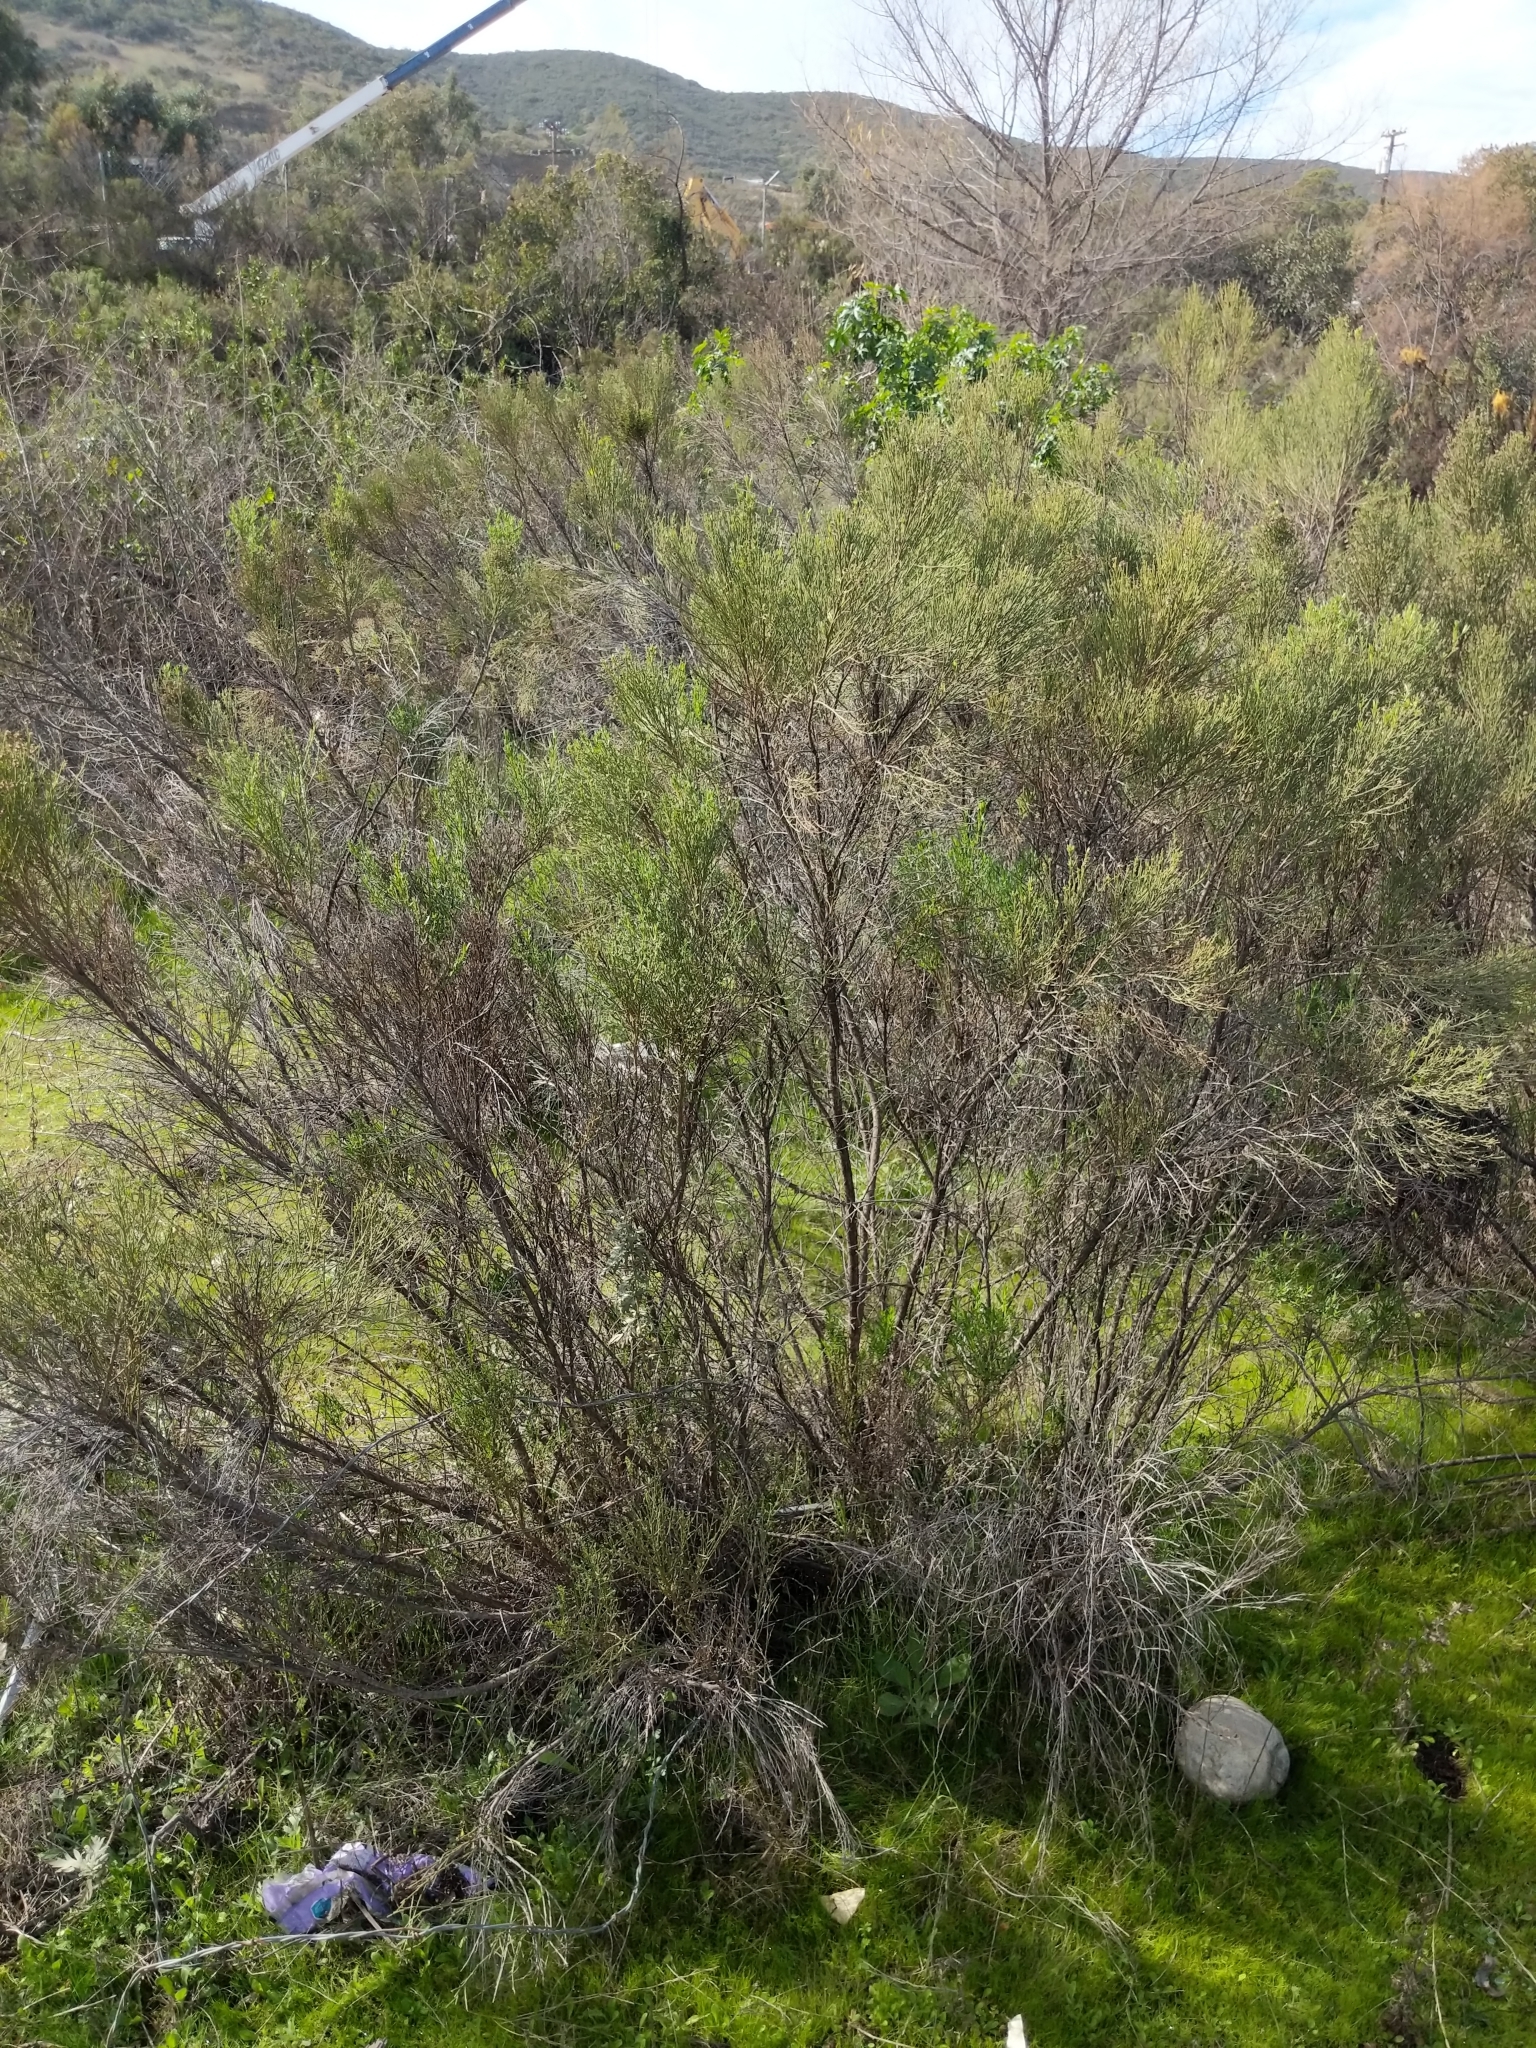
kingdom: Plantae
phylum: Tracheophyta
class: Magnoliopsida
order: Asterales
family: Asteraceae
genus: Baccharis
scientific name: Baccharis pilularis
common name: Coyotebrush
